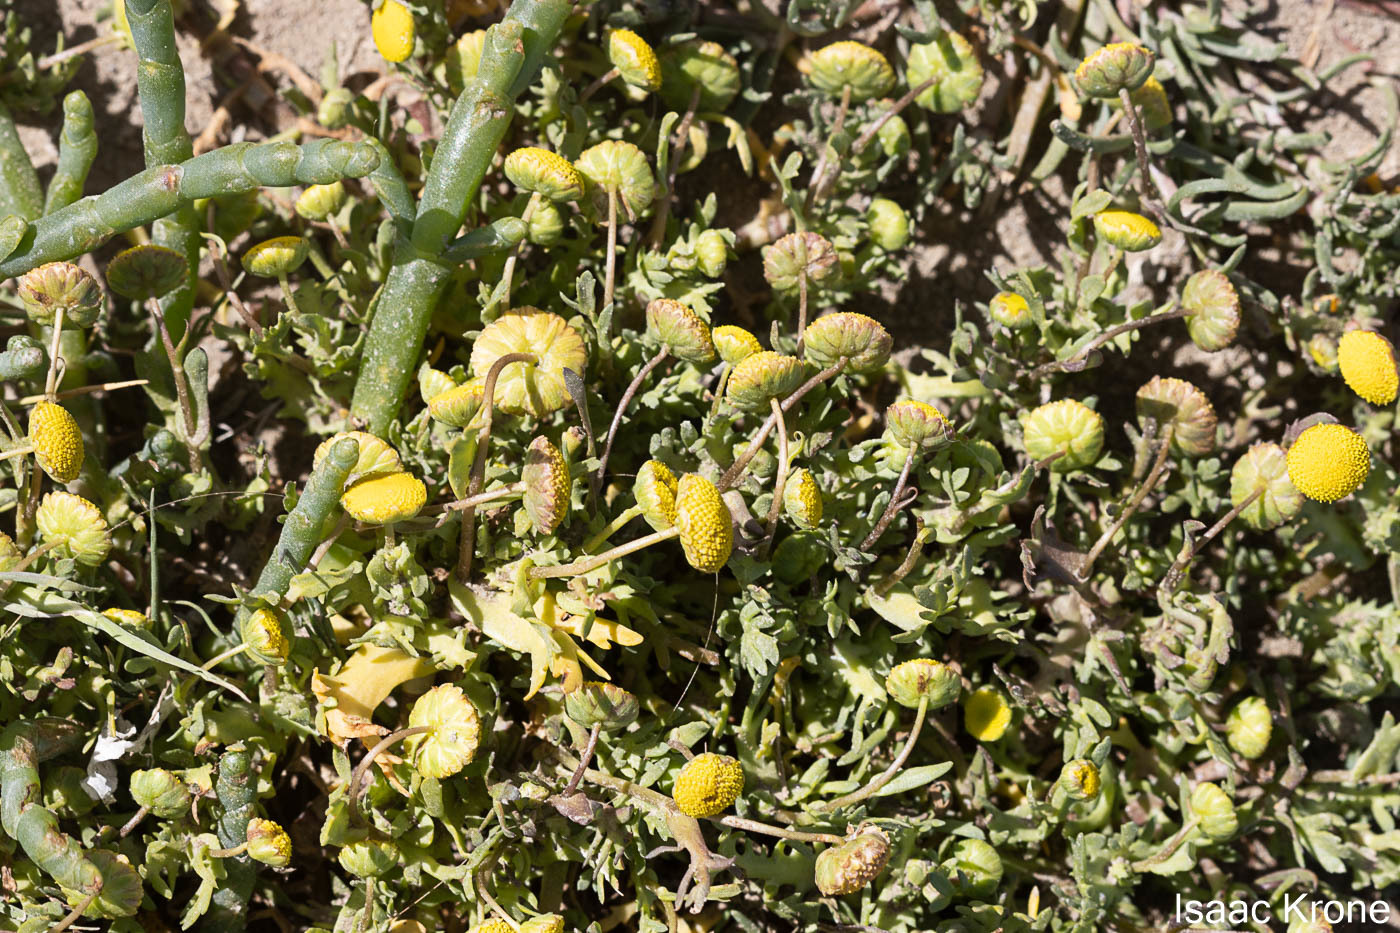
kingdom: Plantae
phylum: Tracheophyta
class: Magnoliopsida
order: Asterales
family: Asteraceae
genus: Cotula
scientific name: Cotula coronopifolia
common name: Buttonweed
